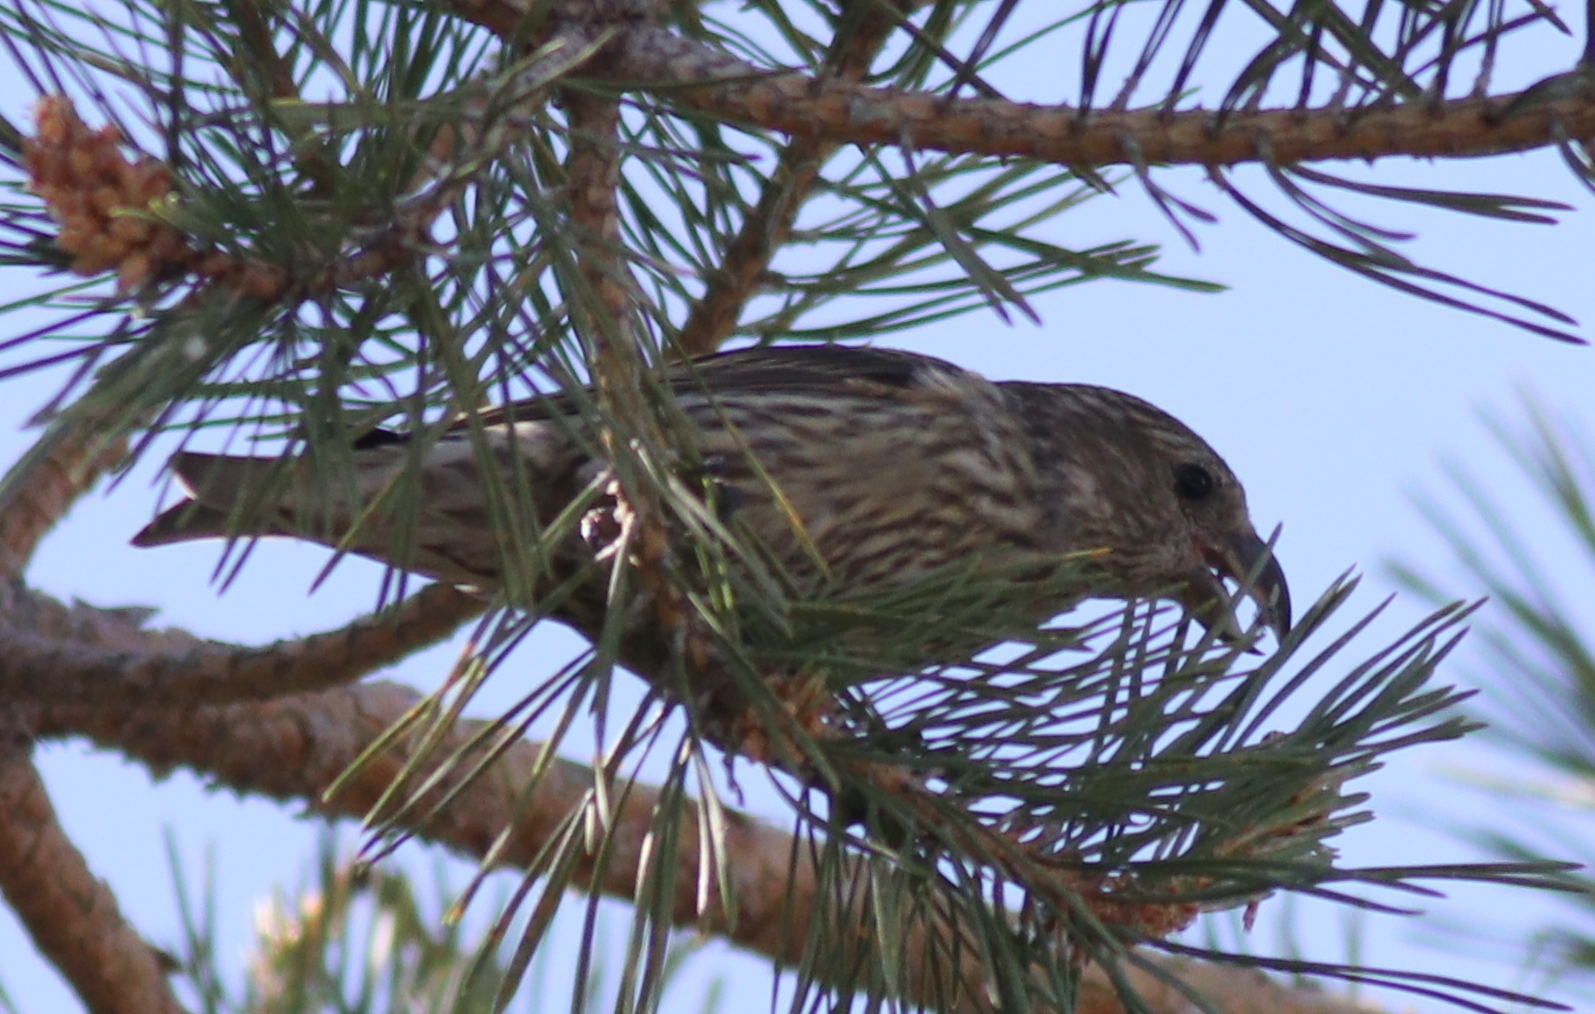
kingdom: Animalia
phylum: Chordata
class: Aves
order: Passeriformes
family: Fringillidae
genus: Loxia
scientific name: Loxia curvirostra
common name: Red crossbill
